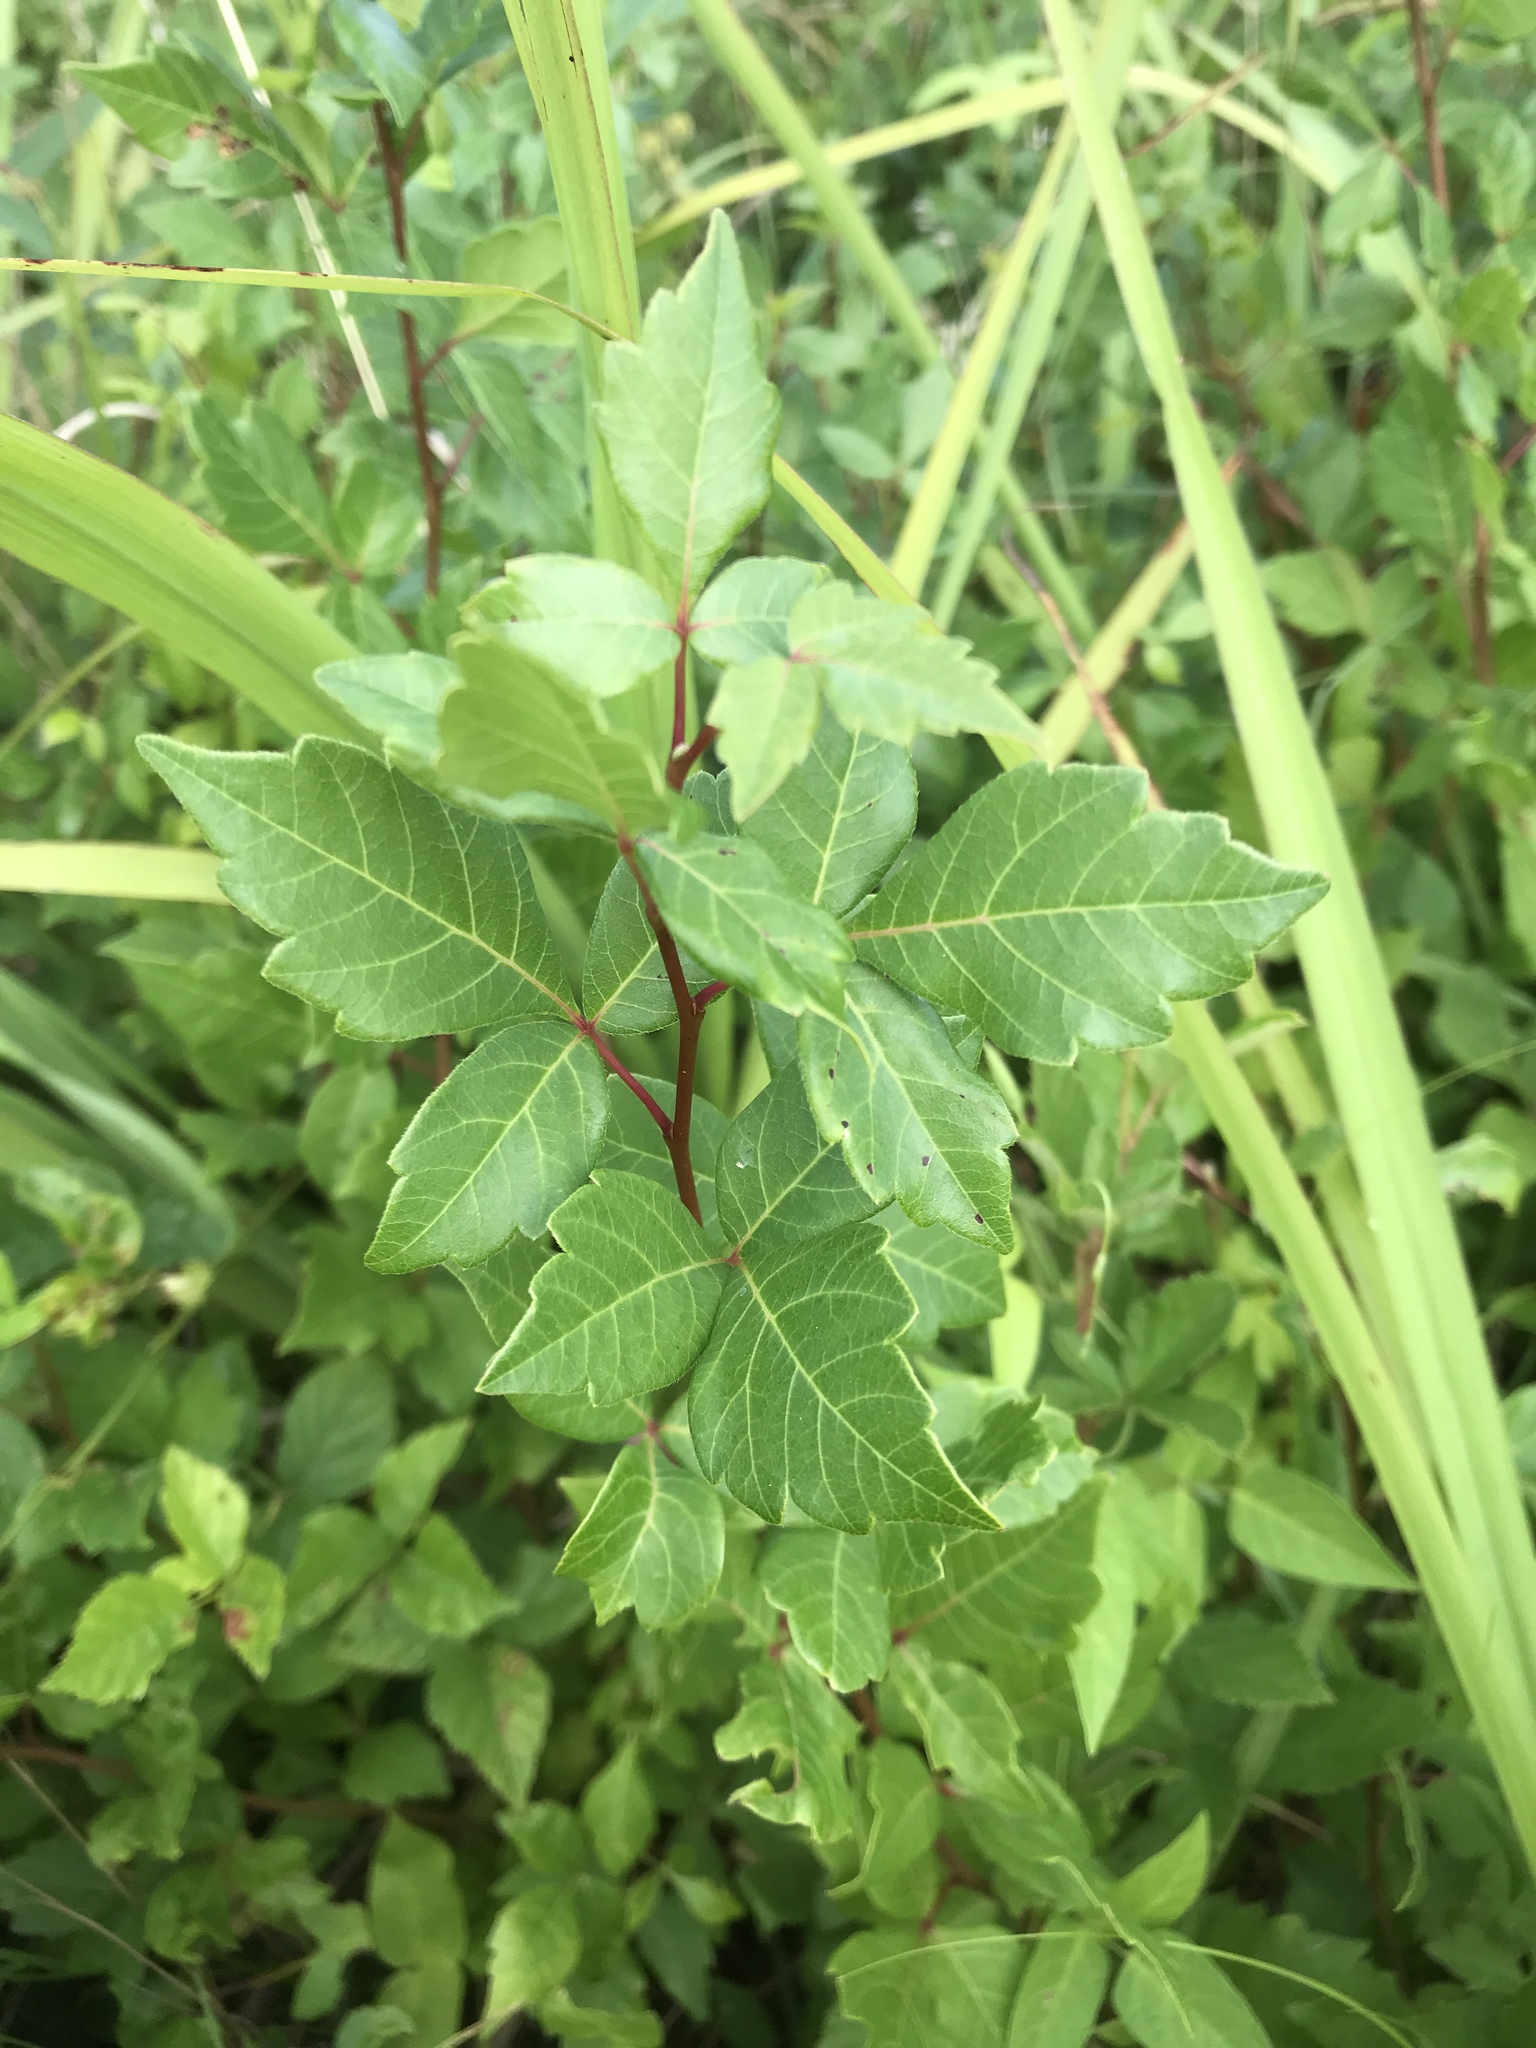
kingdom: Plantae
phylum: Tracheophyta
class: Magnoliopsida
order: Sapindales
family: Anacardiaceae
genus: Rhus
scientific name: Rhus aromatica
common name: Aromatic sumac
